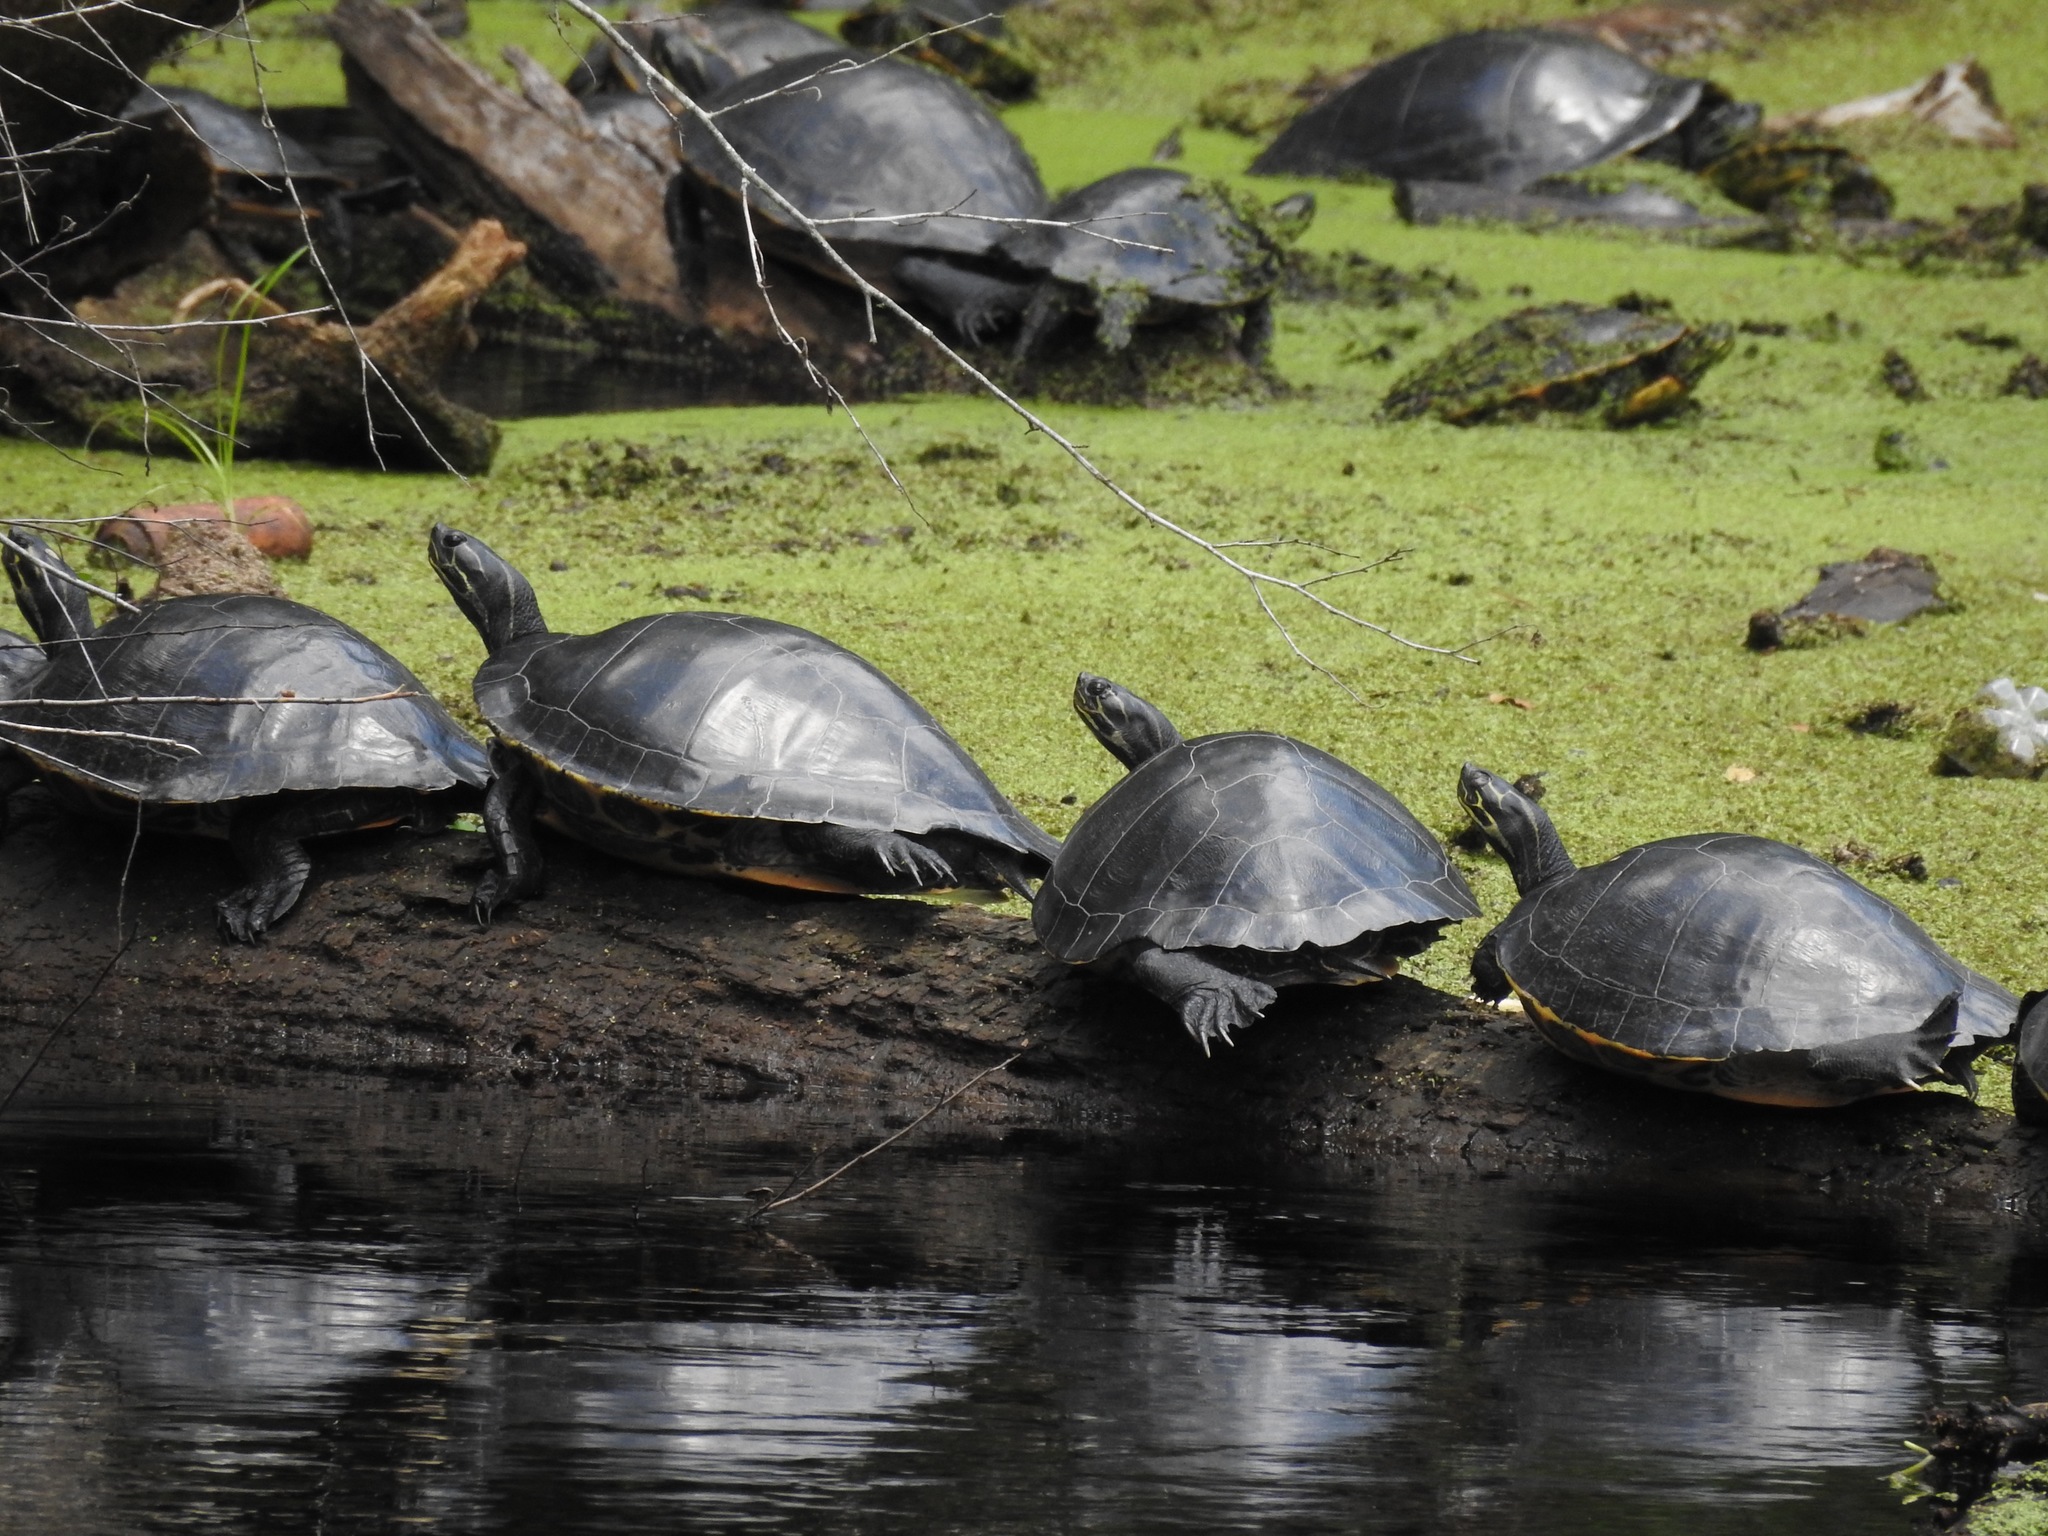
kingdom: Animalia
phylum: Chordata
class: Testudines
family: Emydidae
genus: Pseudemys
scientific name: Pseudemys concinna
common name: Eastern river cooter
